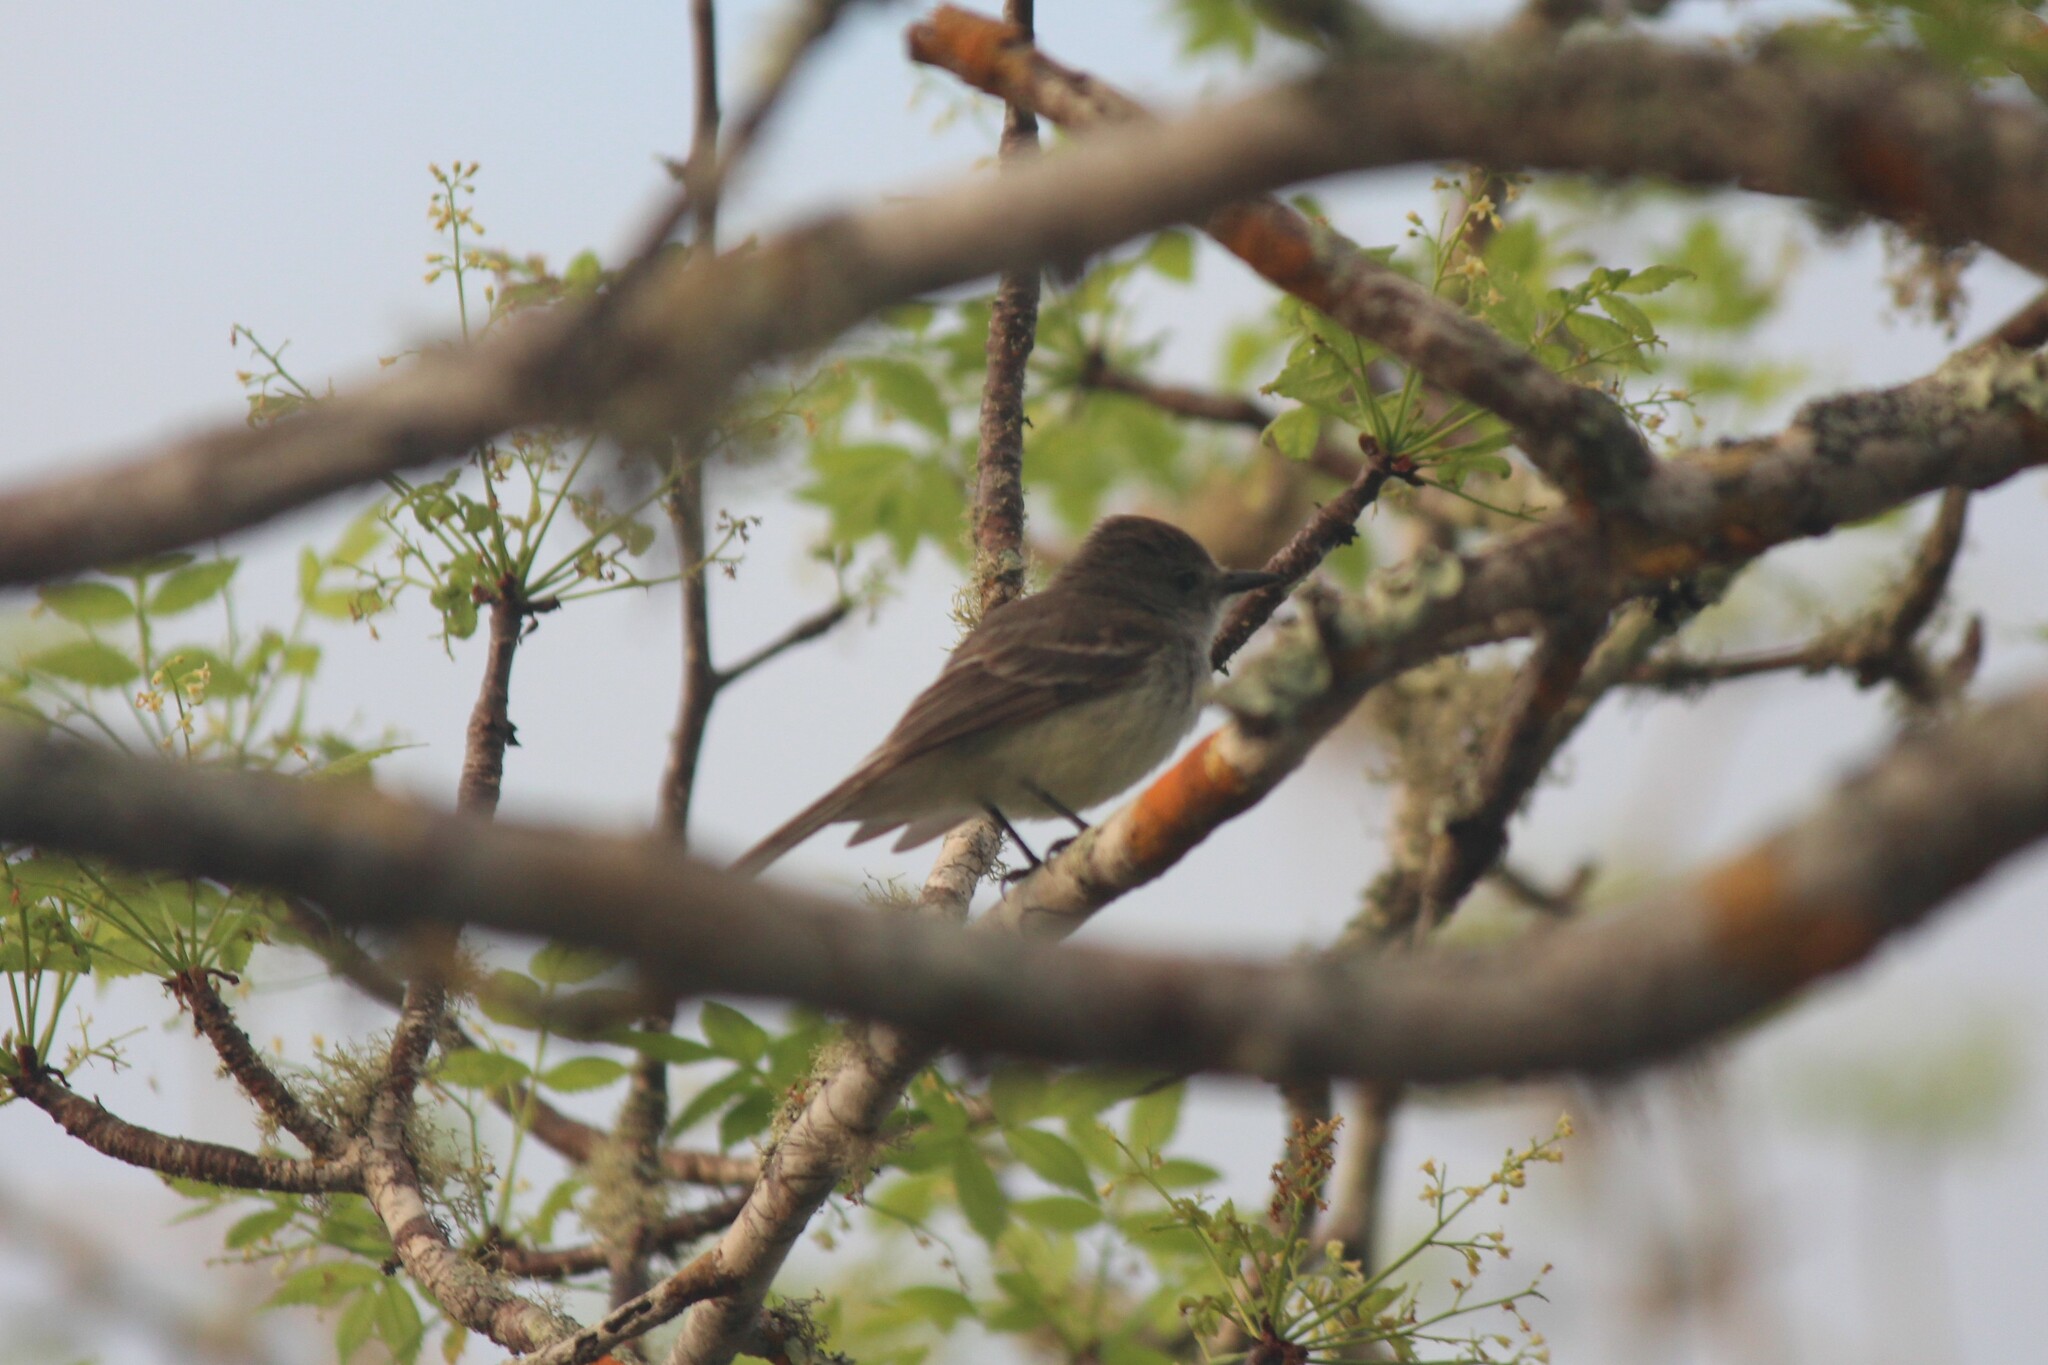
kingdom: Animalia
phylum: Chordata
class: Aves
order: Passeriformes
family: Tyrannidae
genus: Myiarchus
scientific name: Myiarchus magnirostris
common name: Galapagos flycatcher
